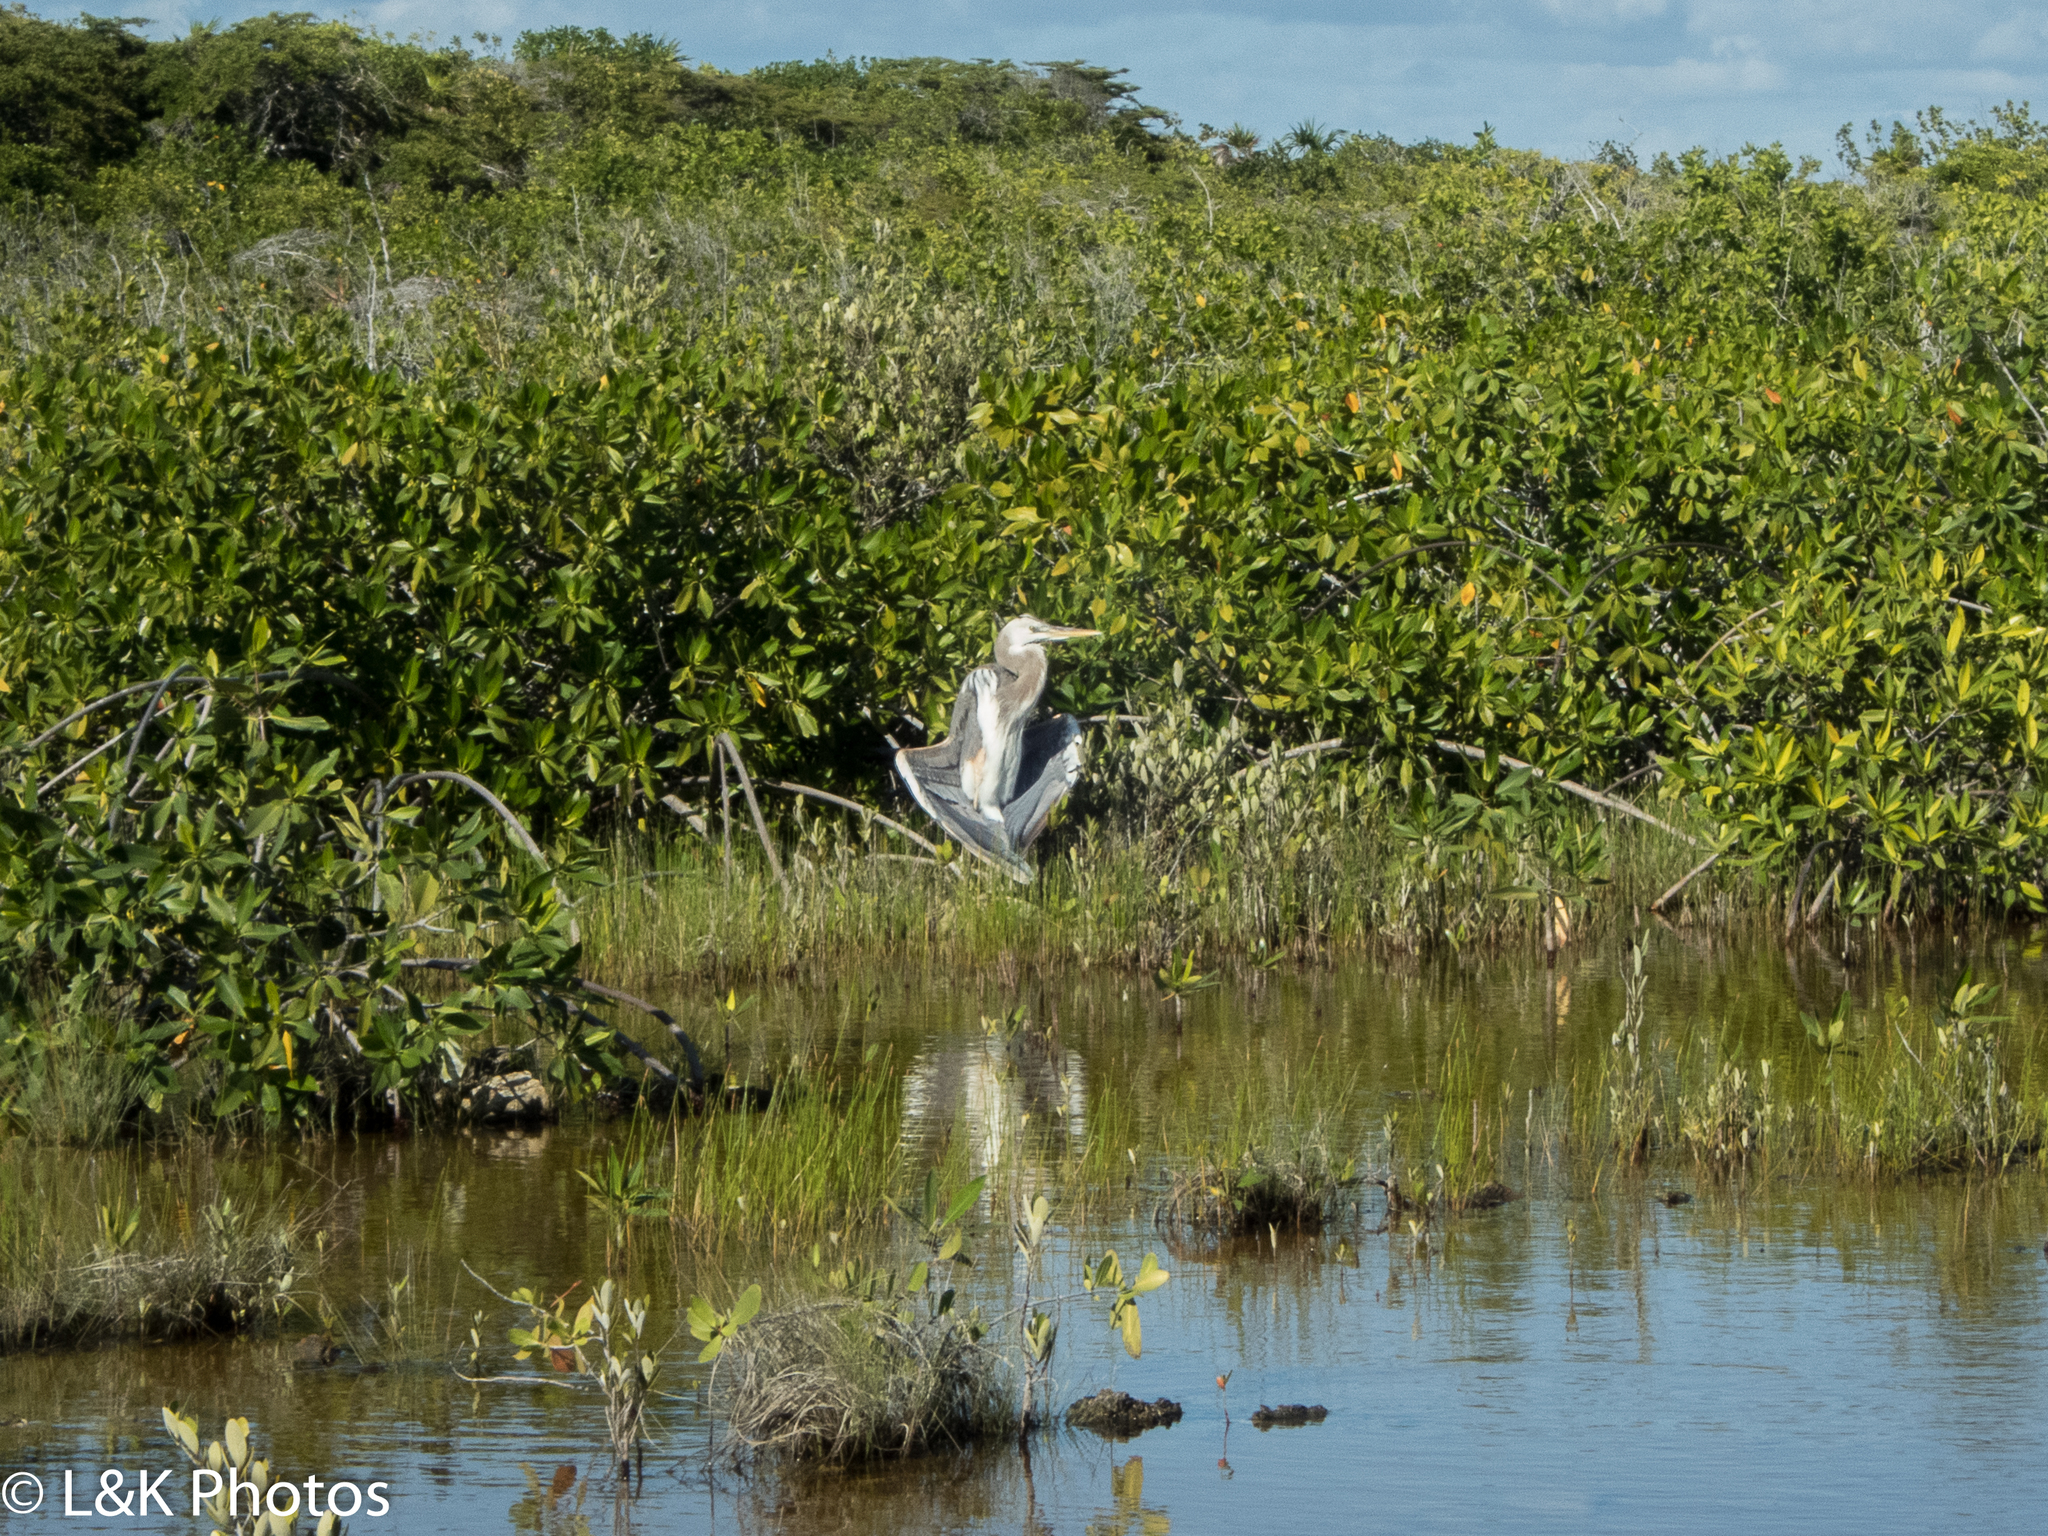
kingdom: Animalia
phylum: Chordata
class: Aves
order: Pelecaniformes
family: Ardeidae
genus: Ardea
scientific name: Ardea
